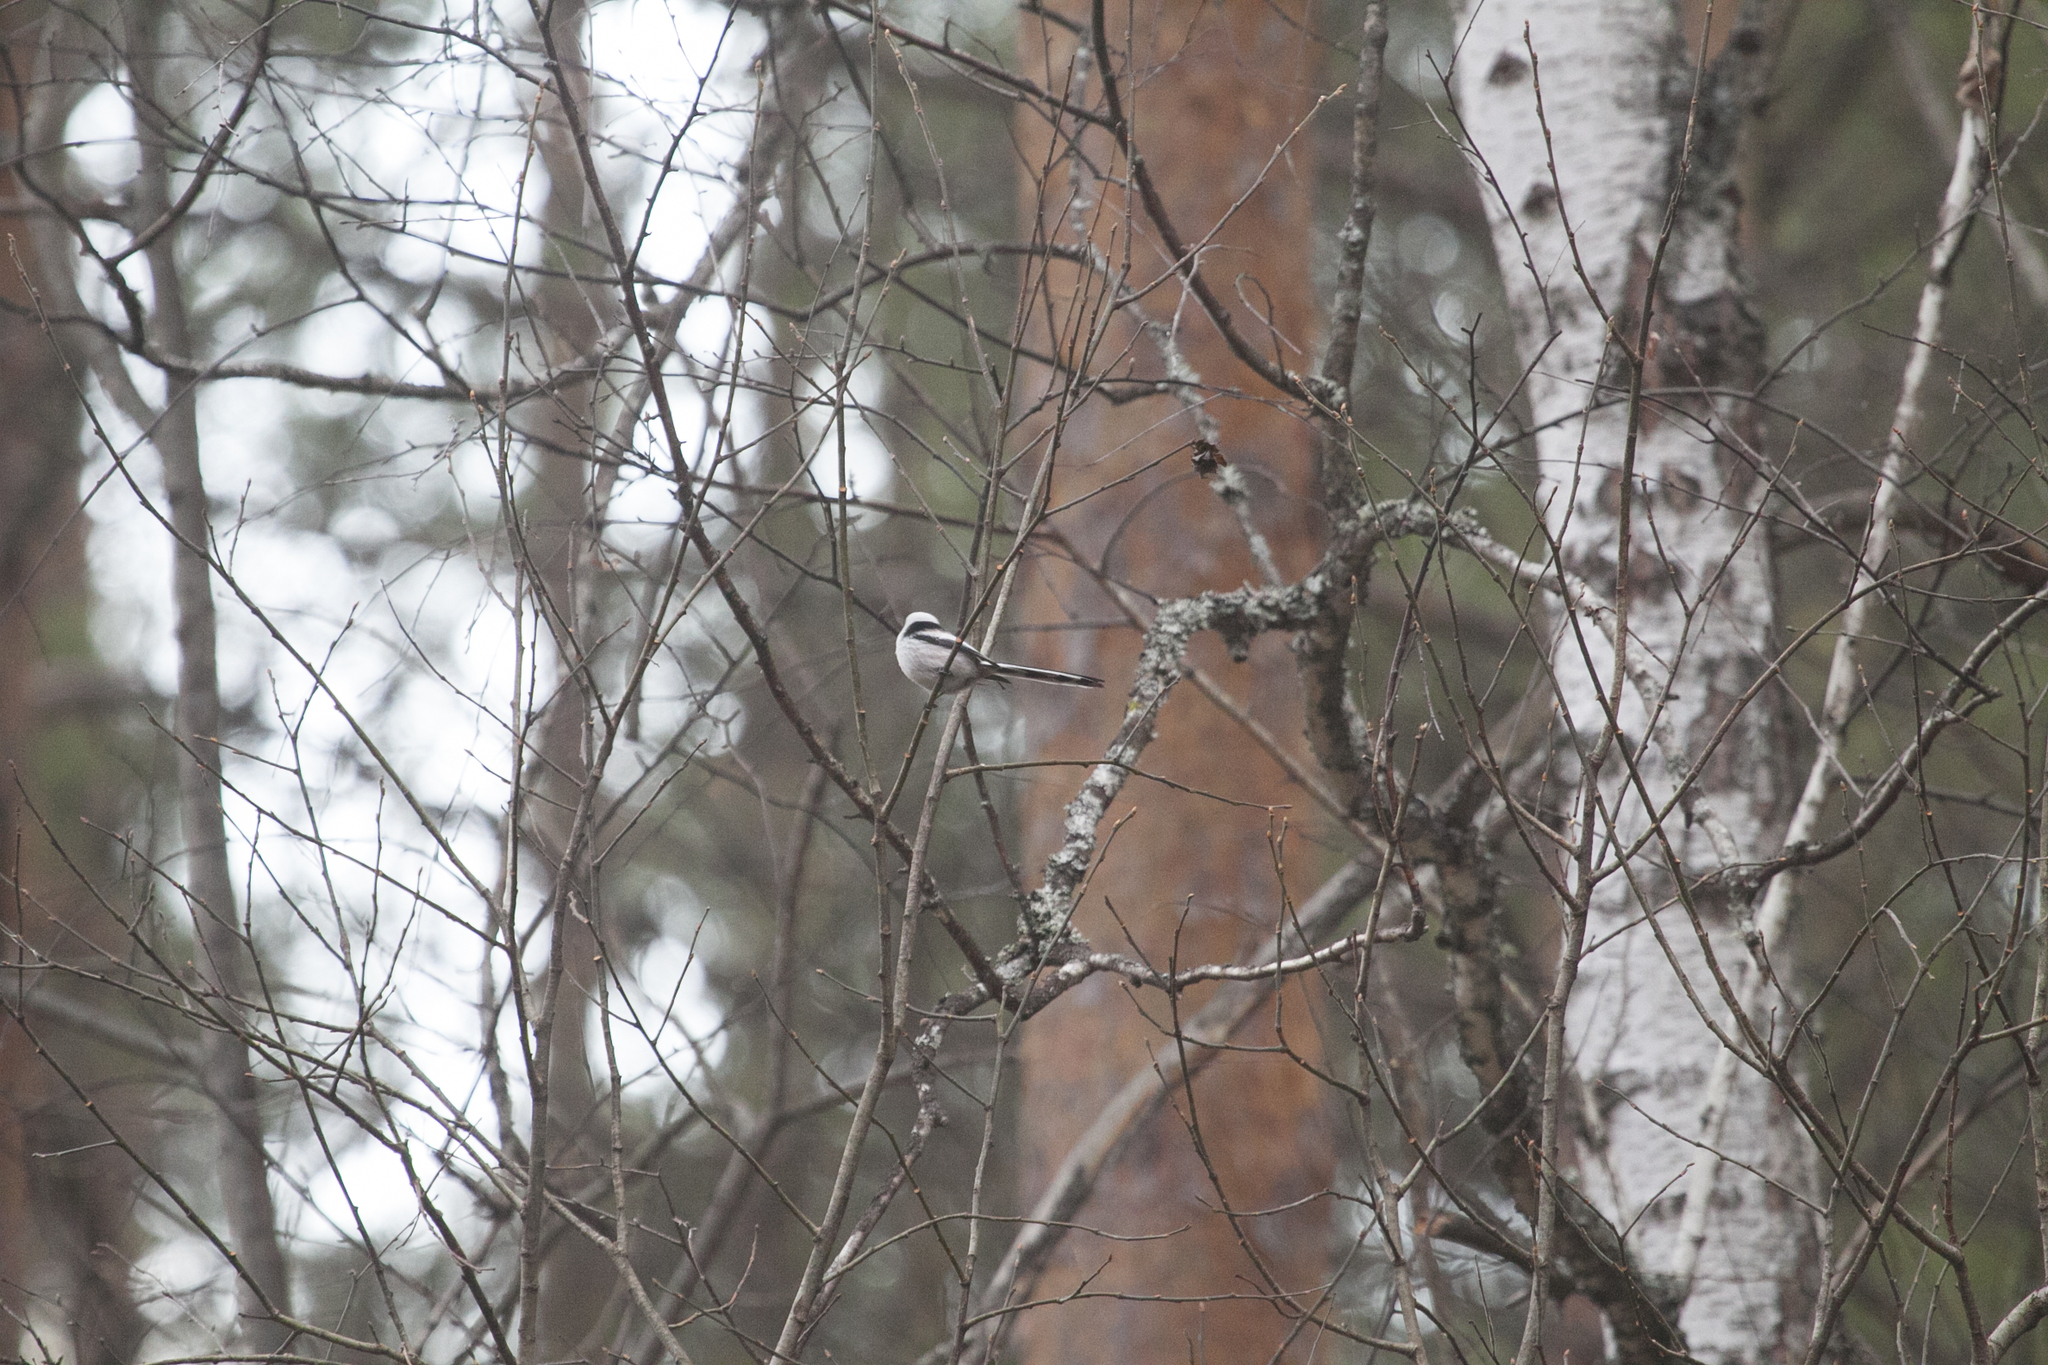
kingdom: Animalia
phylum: Chordata
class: Aves
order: Passeriformes
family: Aegithalidae
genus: Aegithalos
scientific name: Aegithalos caudatus
